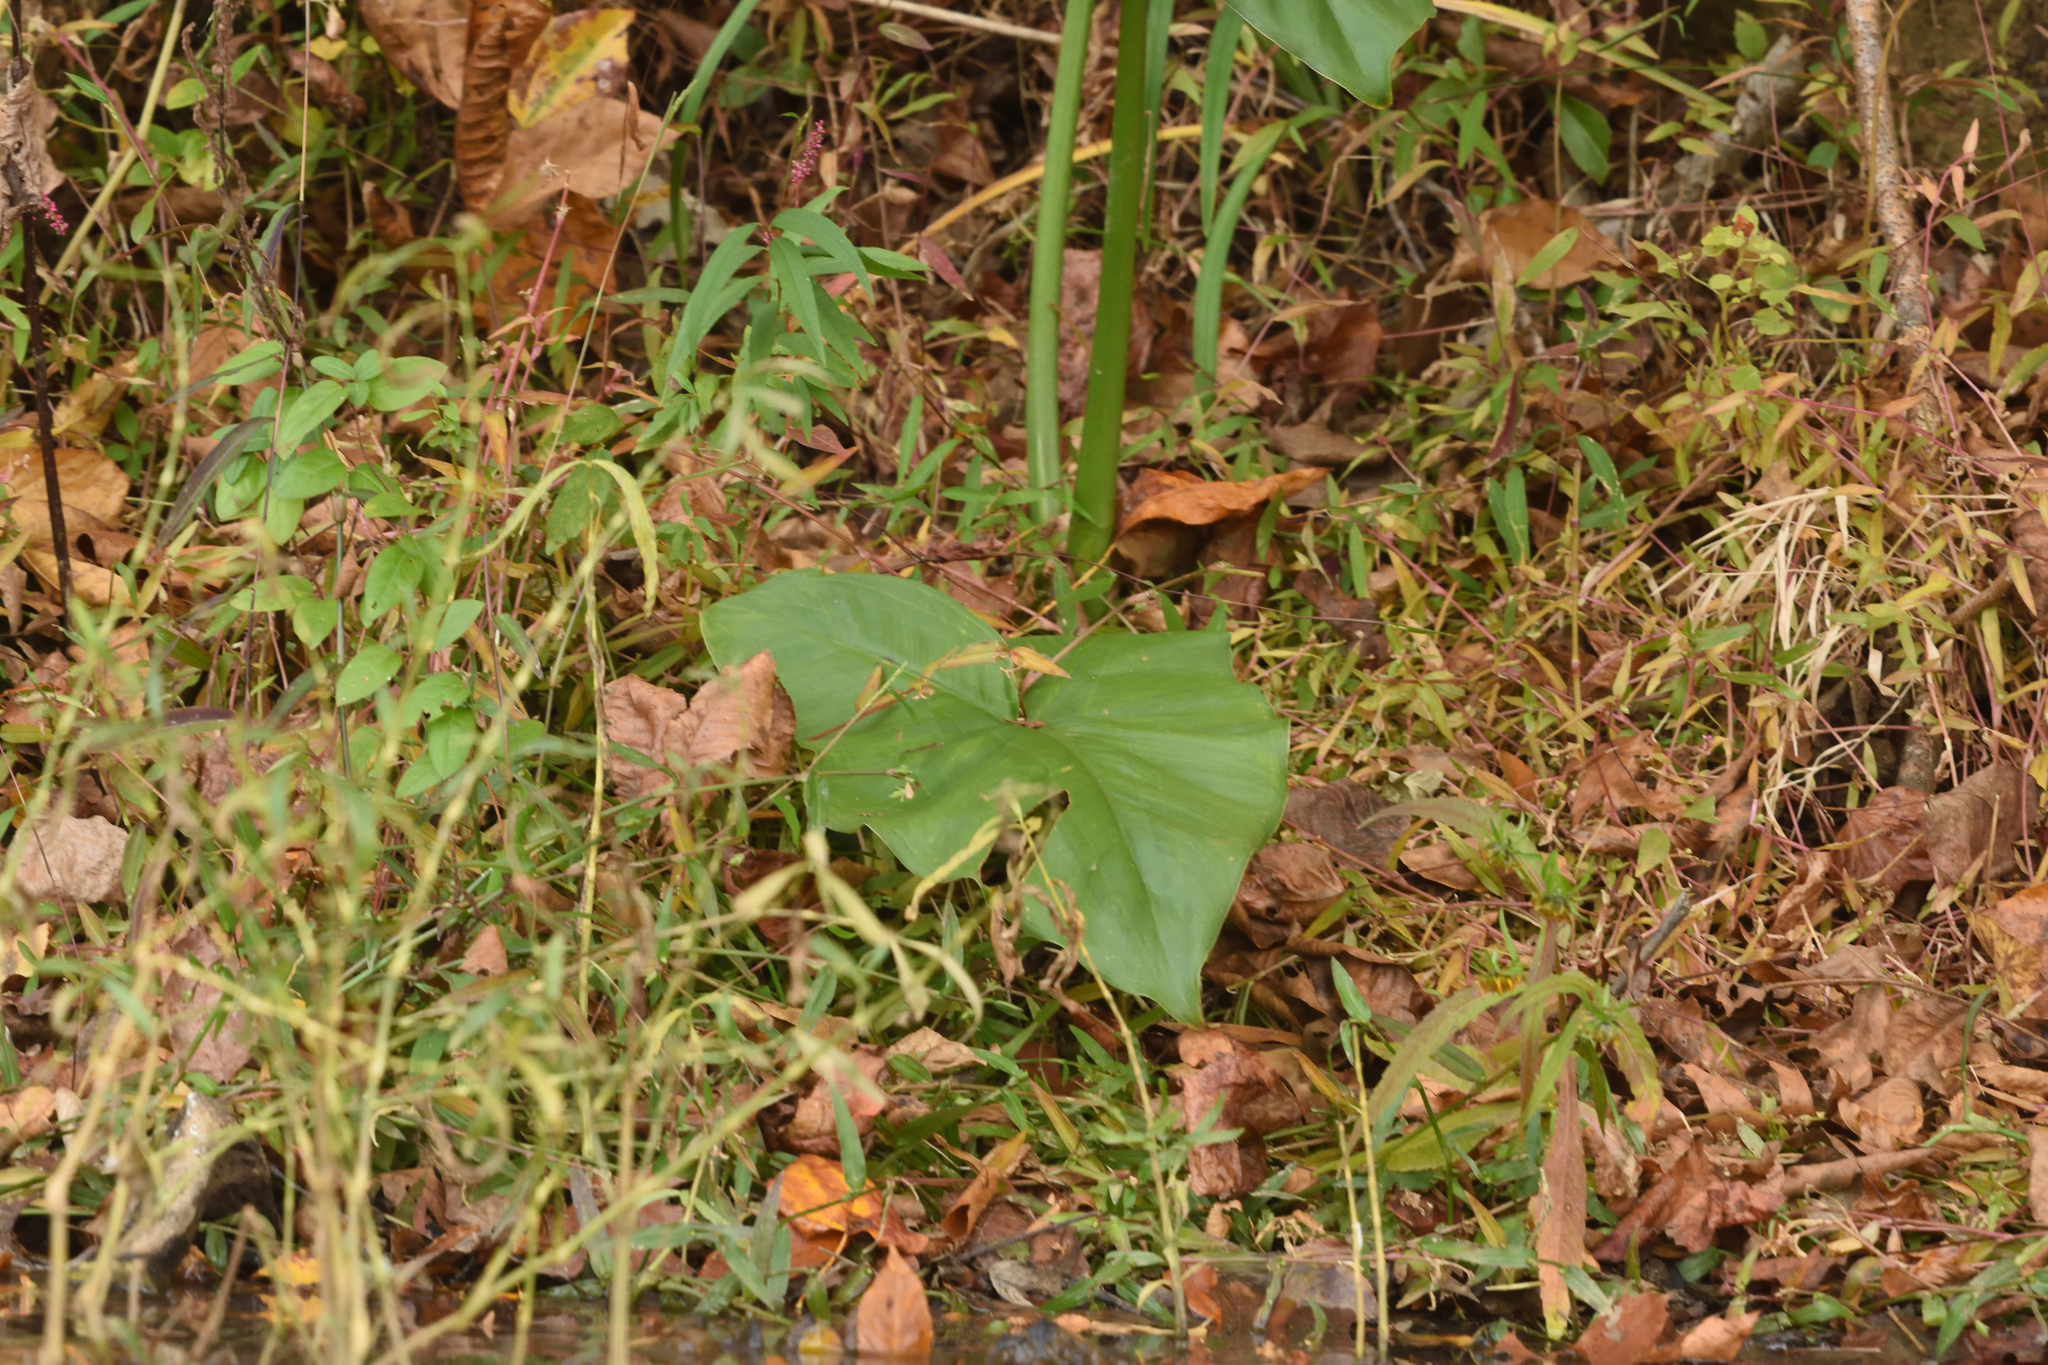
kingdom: Plantae
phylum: Tracheophyta
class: Liliopsida
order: Alismatales
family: Araceae
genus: Peltandra
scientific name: Peltandra virginica
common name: Arrow arum
